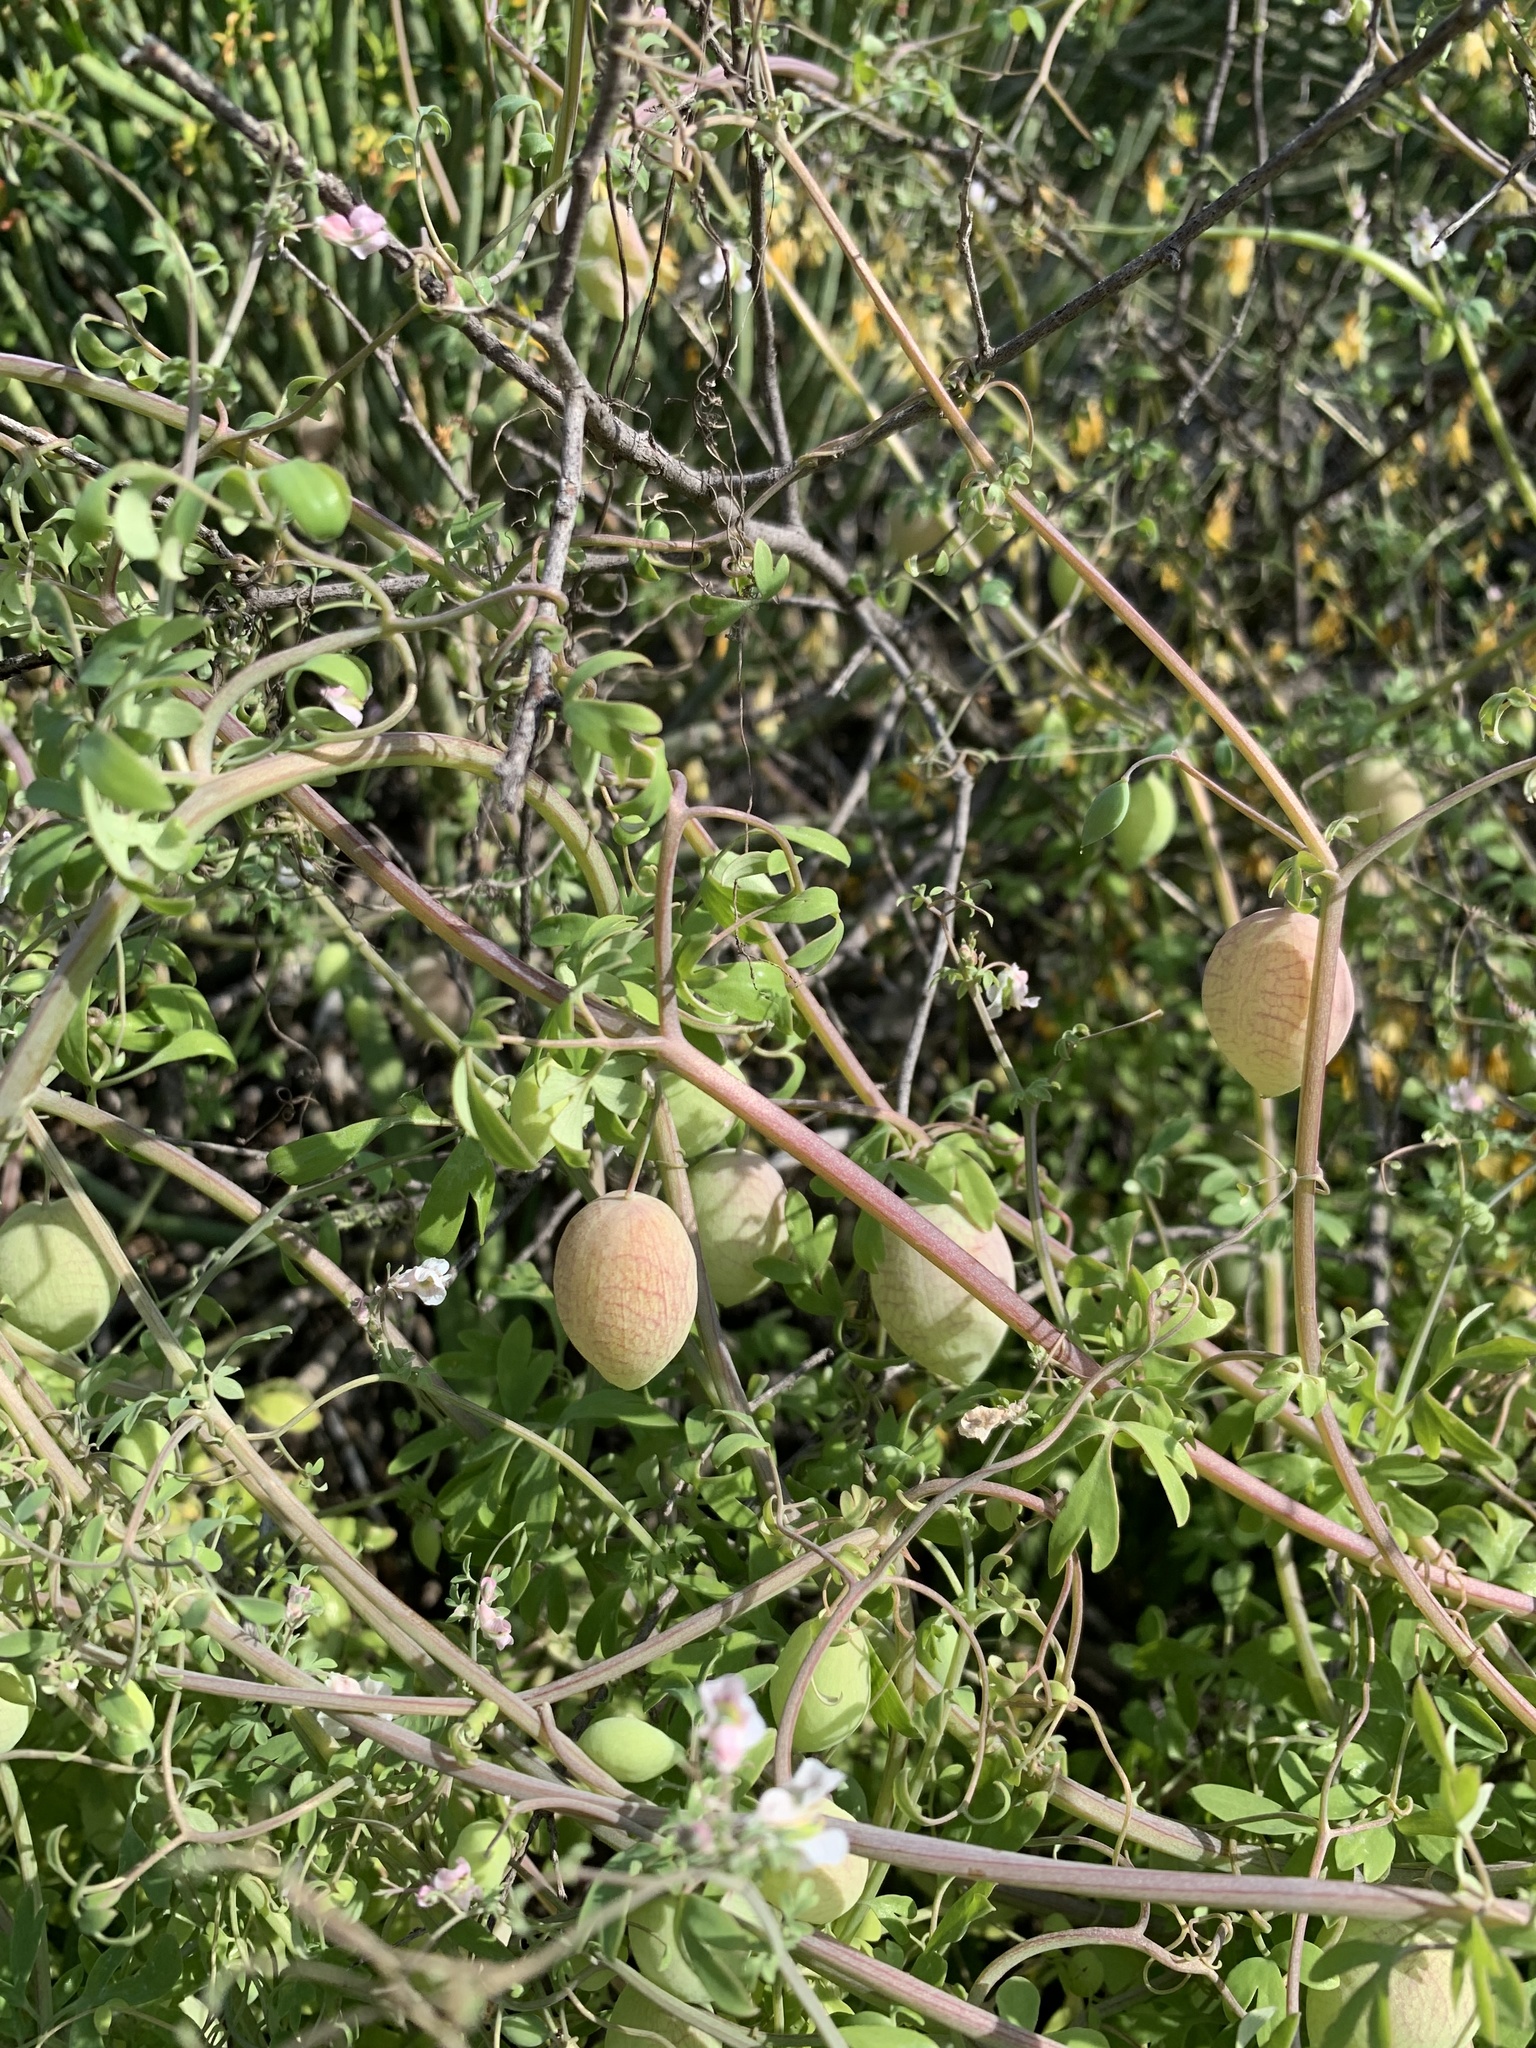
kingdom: Plantae
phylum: Tracheophyta
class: Magnoliopsida
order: Ranunculales
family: Papaveraceae
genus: Cysticapnos
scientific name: Cysticapnos vesicaria
